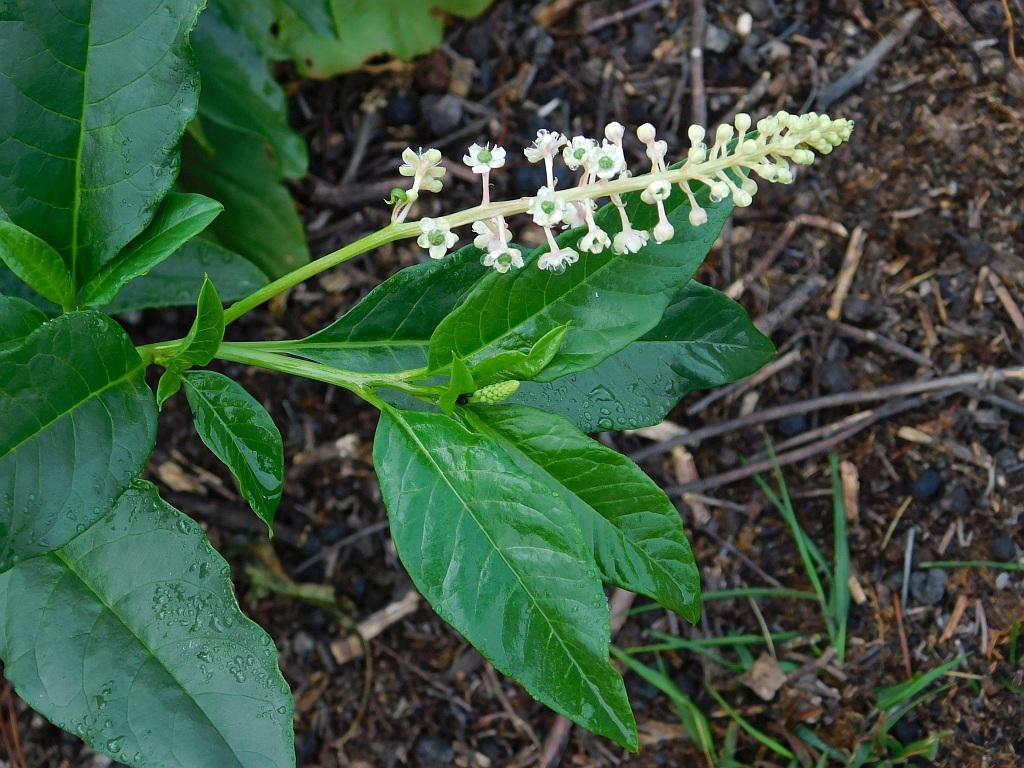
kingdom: Plantae
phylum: Tracheophyta
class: Magnoliopsida
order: Caryophyllales
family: Phytolaccaceae
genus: Phytolacca
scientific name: Phytolacca americana
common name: American pokeweed
